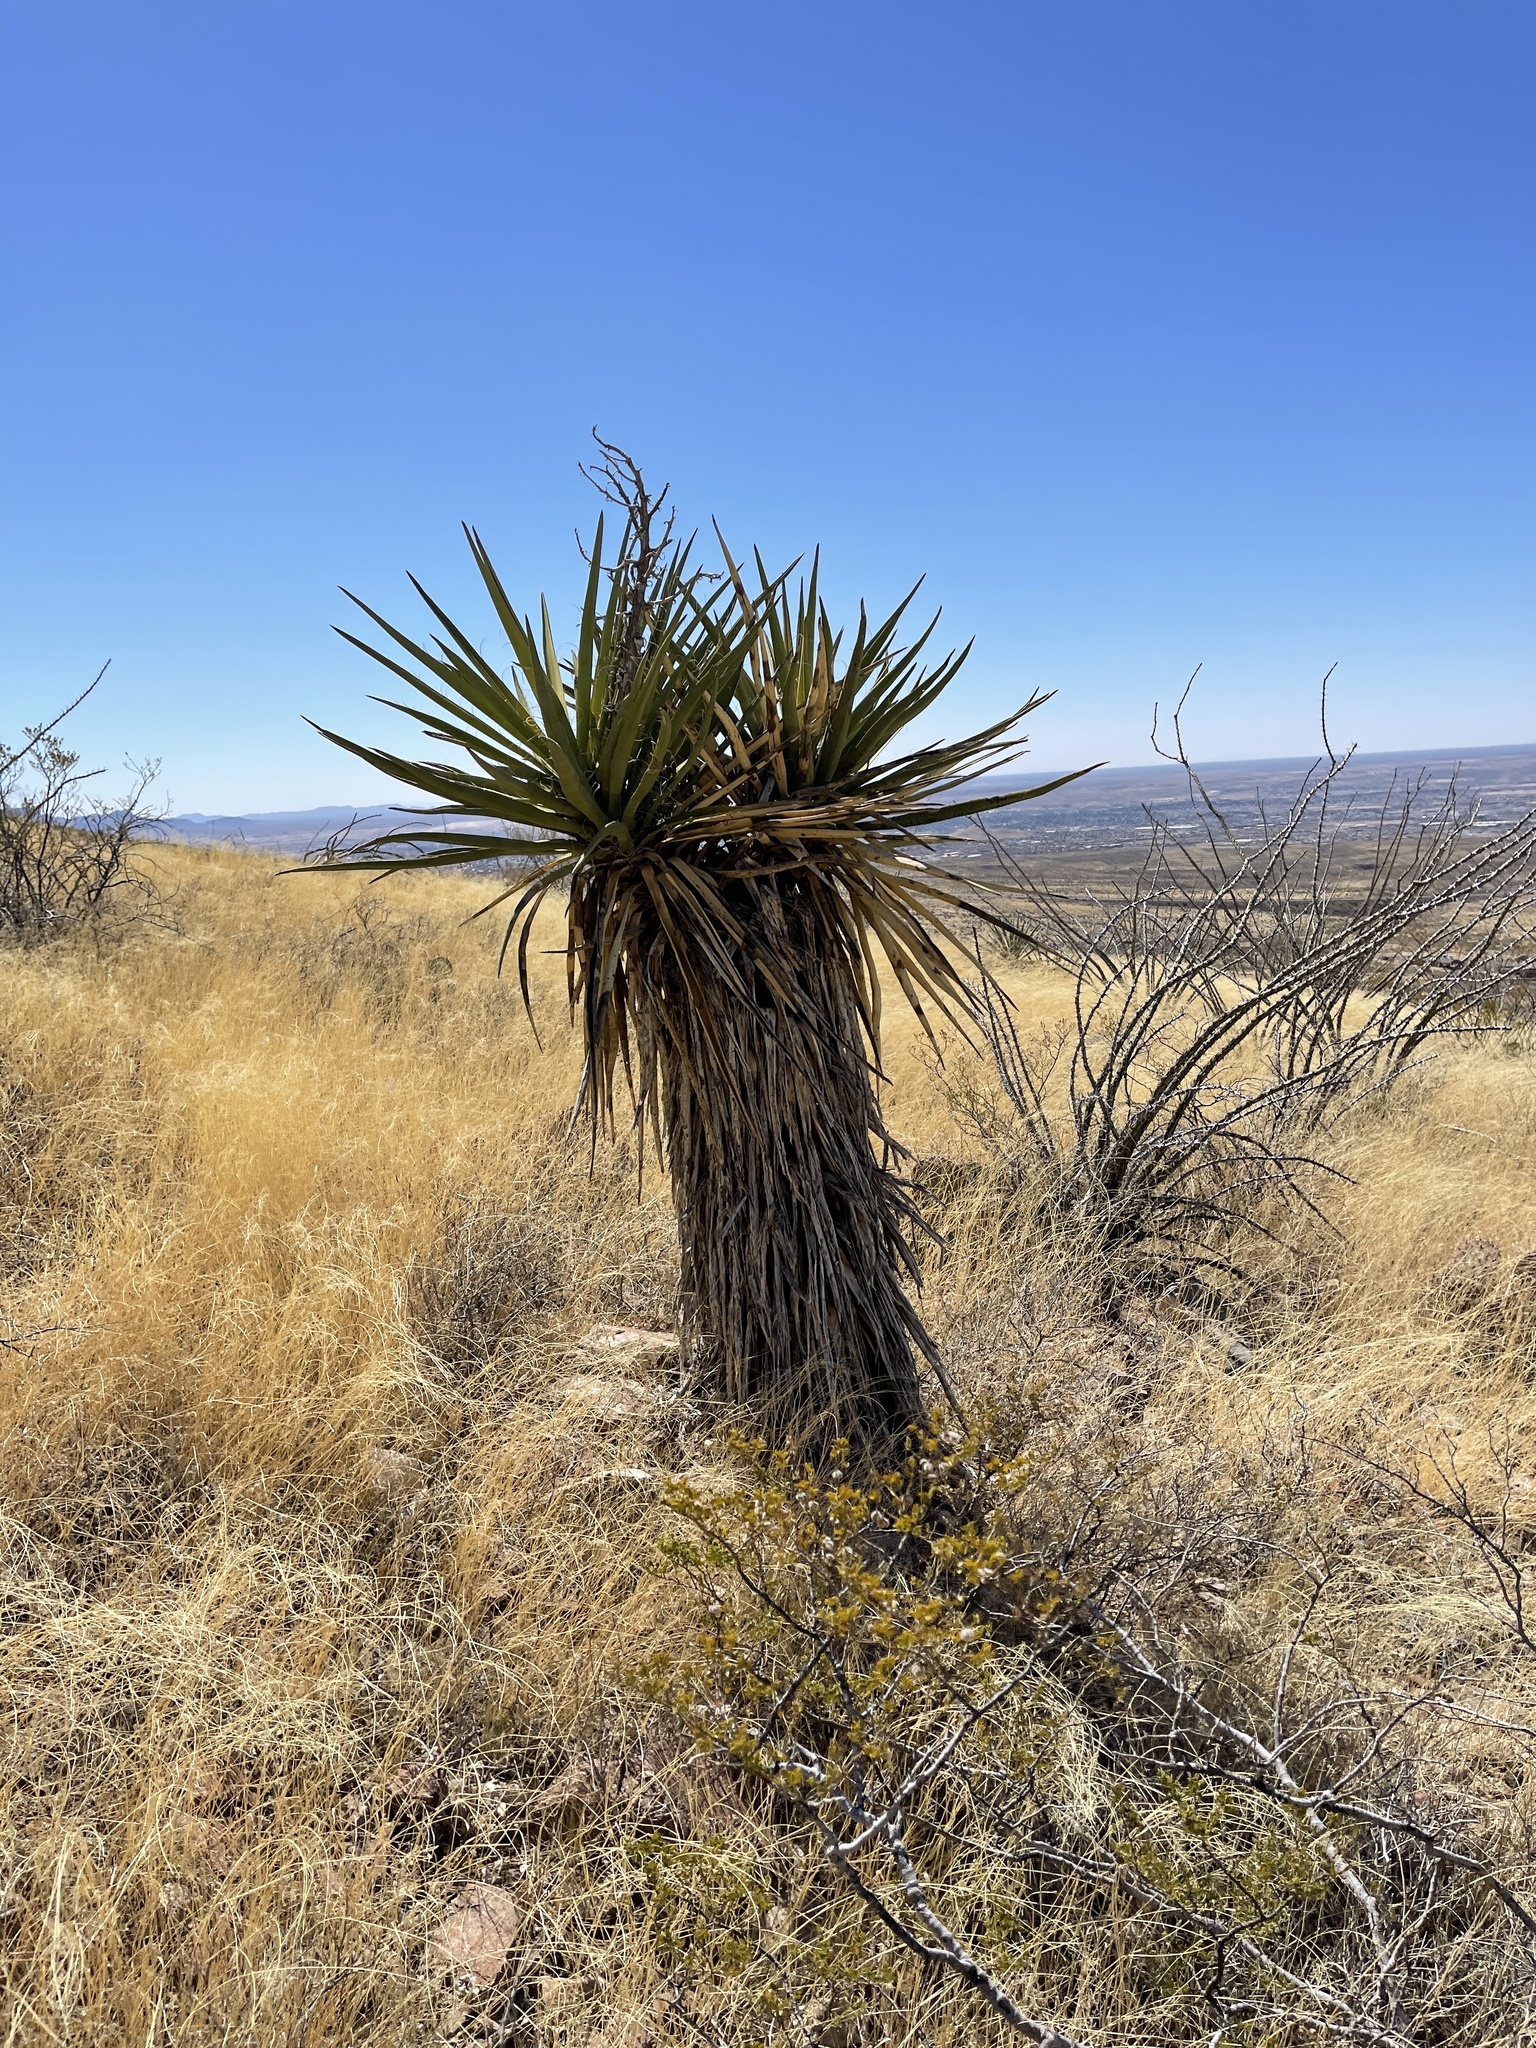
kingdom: Plantae
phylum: Tracheophyta
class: Liliopsida
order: Asparagales
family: Asparagaceae
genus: Yucca
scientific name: Yucca treculiana
